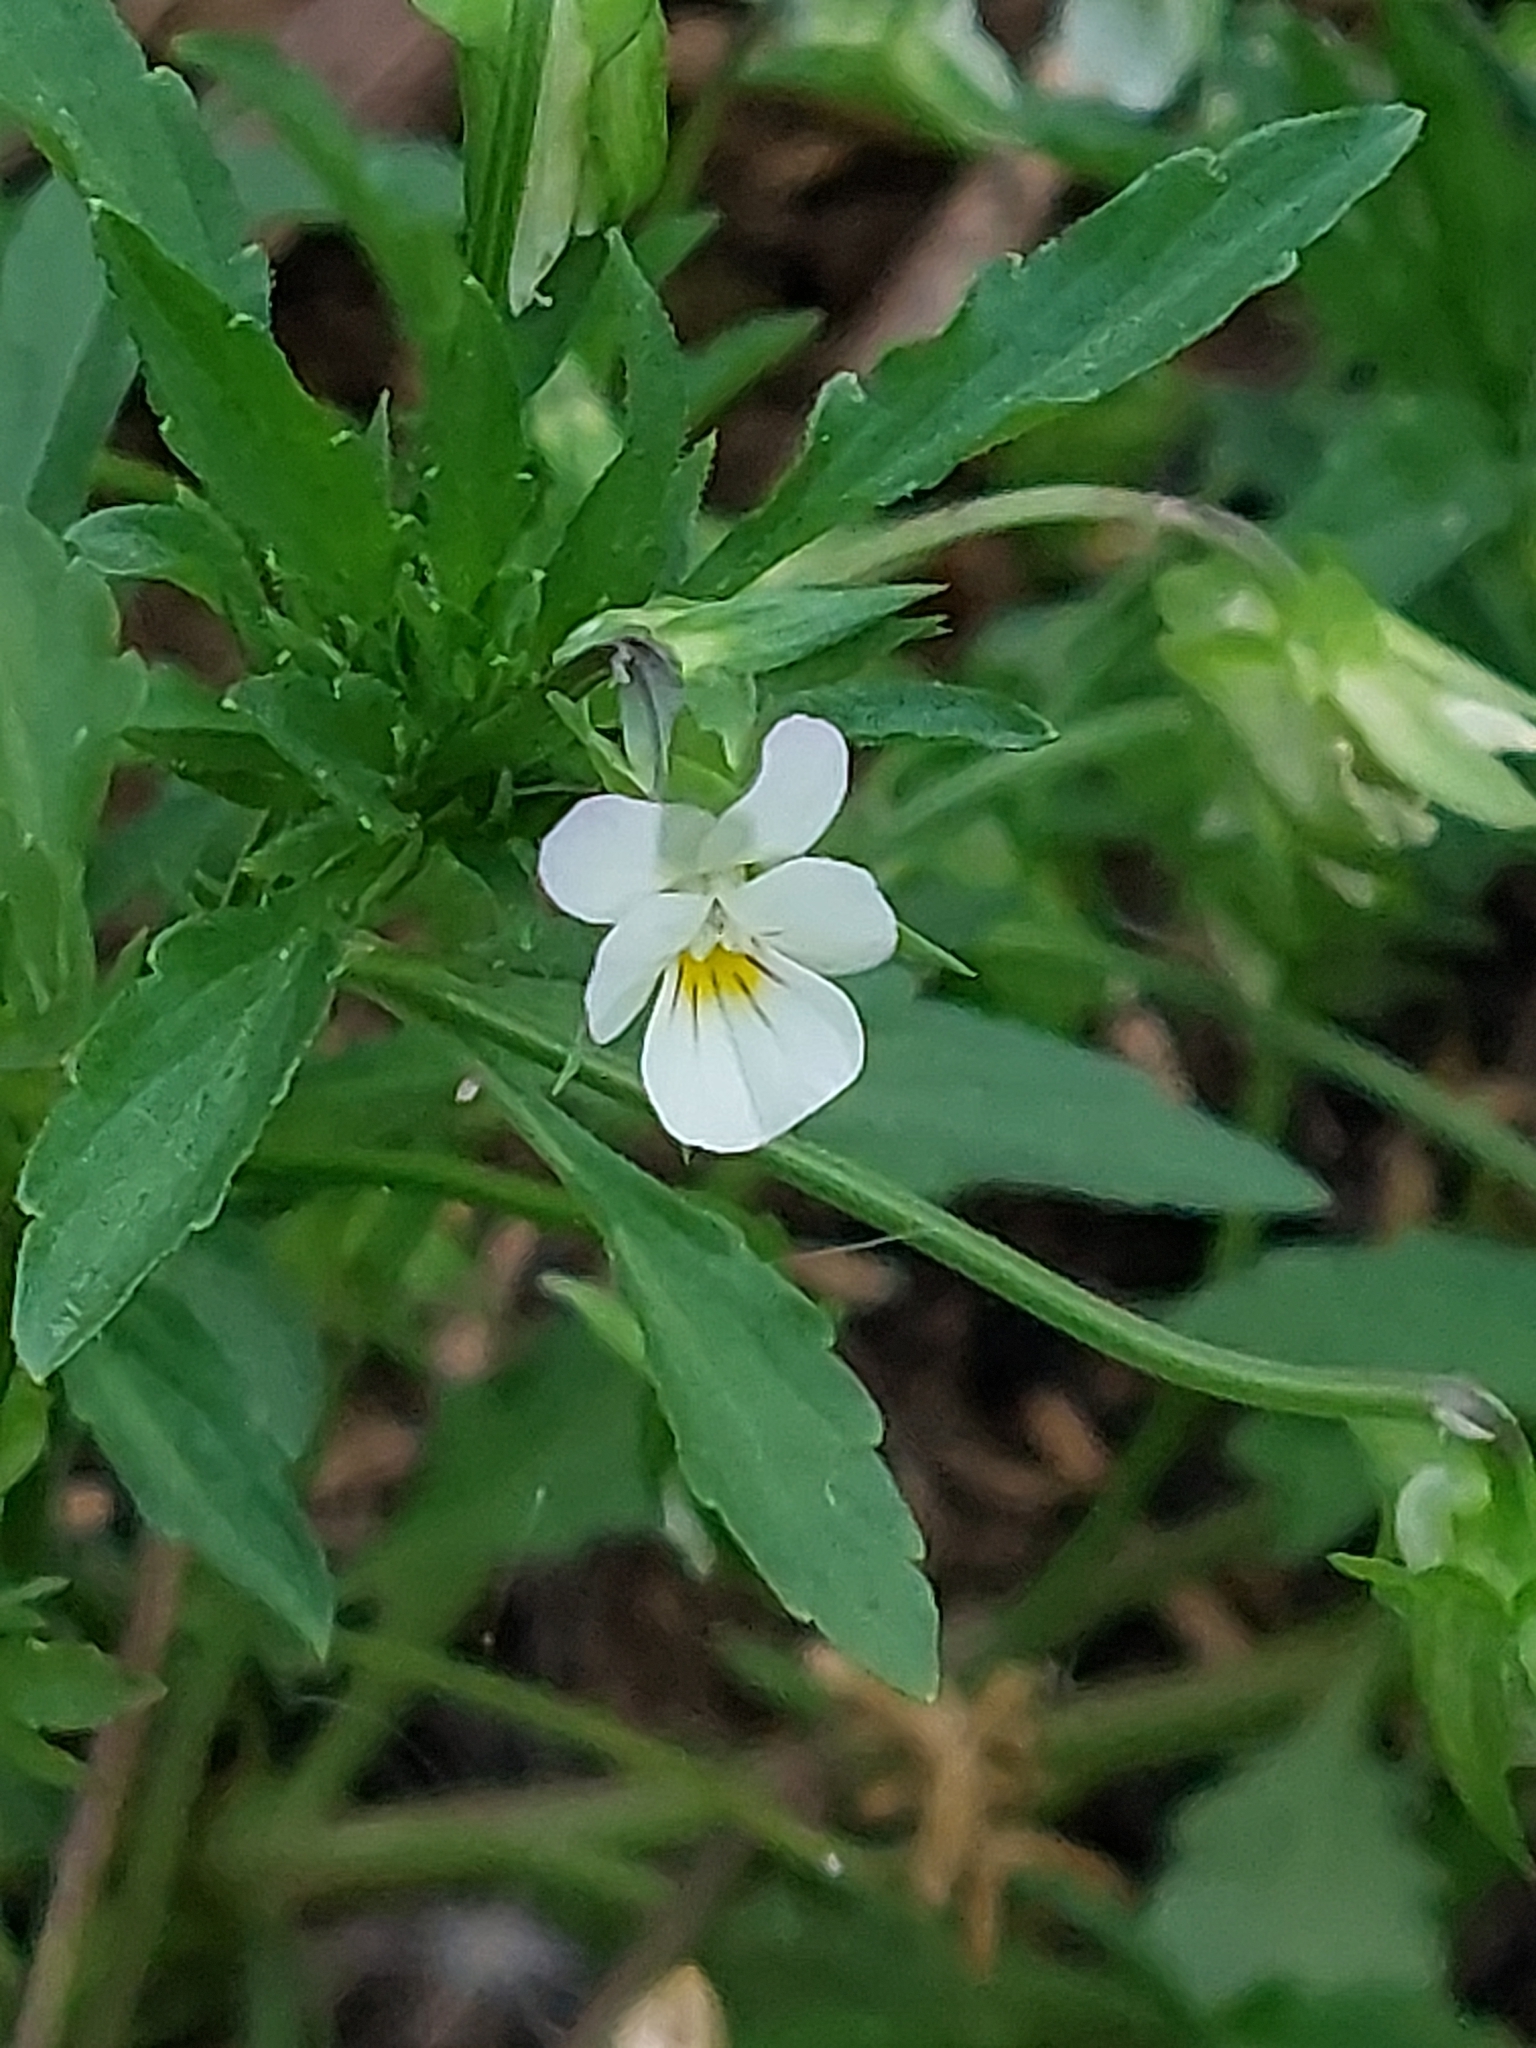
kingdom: Plantae
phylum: Tracheophyta
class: Magnoliopsida
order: Malpighiales
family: Violaceae
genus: Viola
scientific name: Viola arvensis
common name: Field pansy
